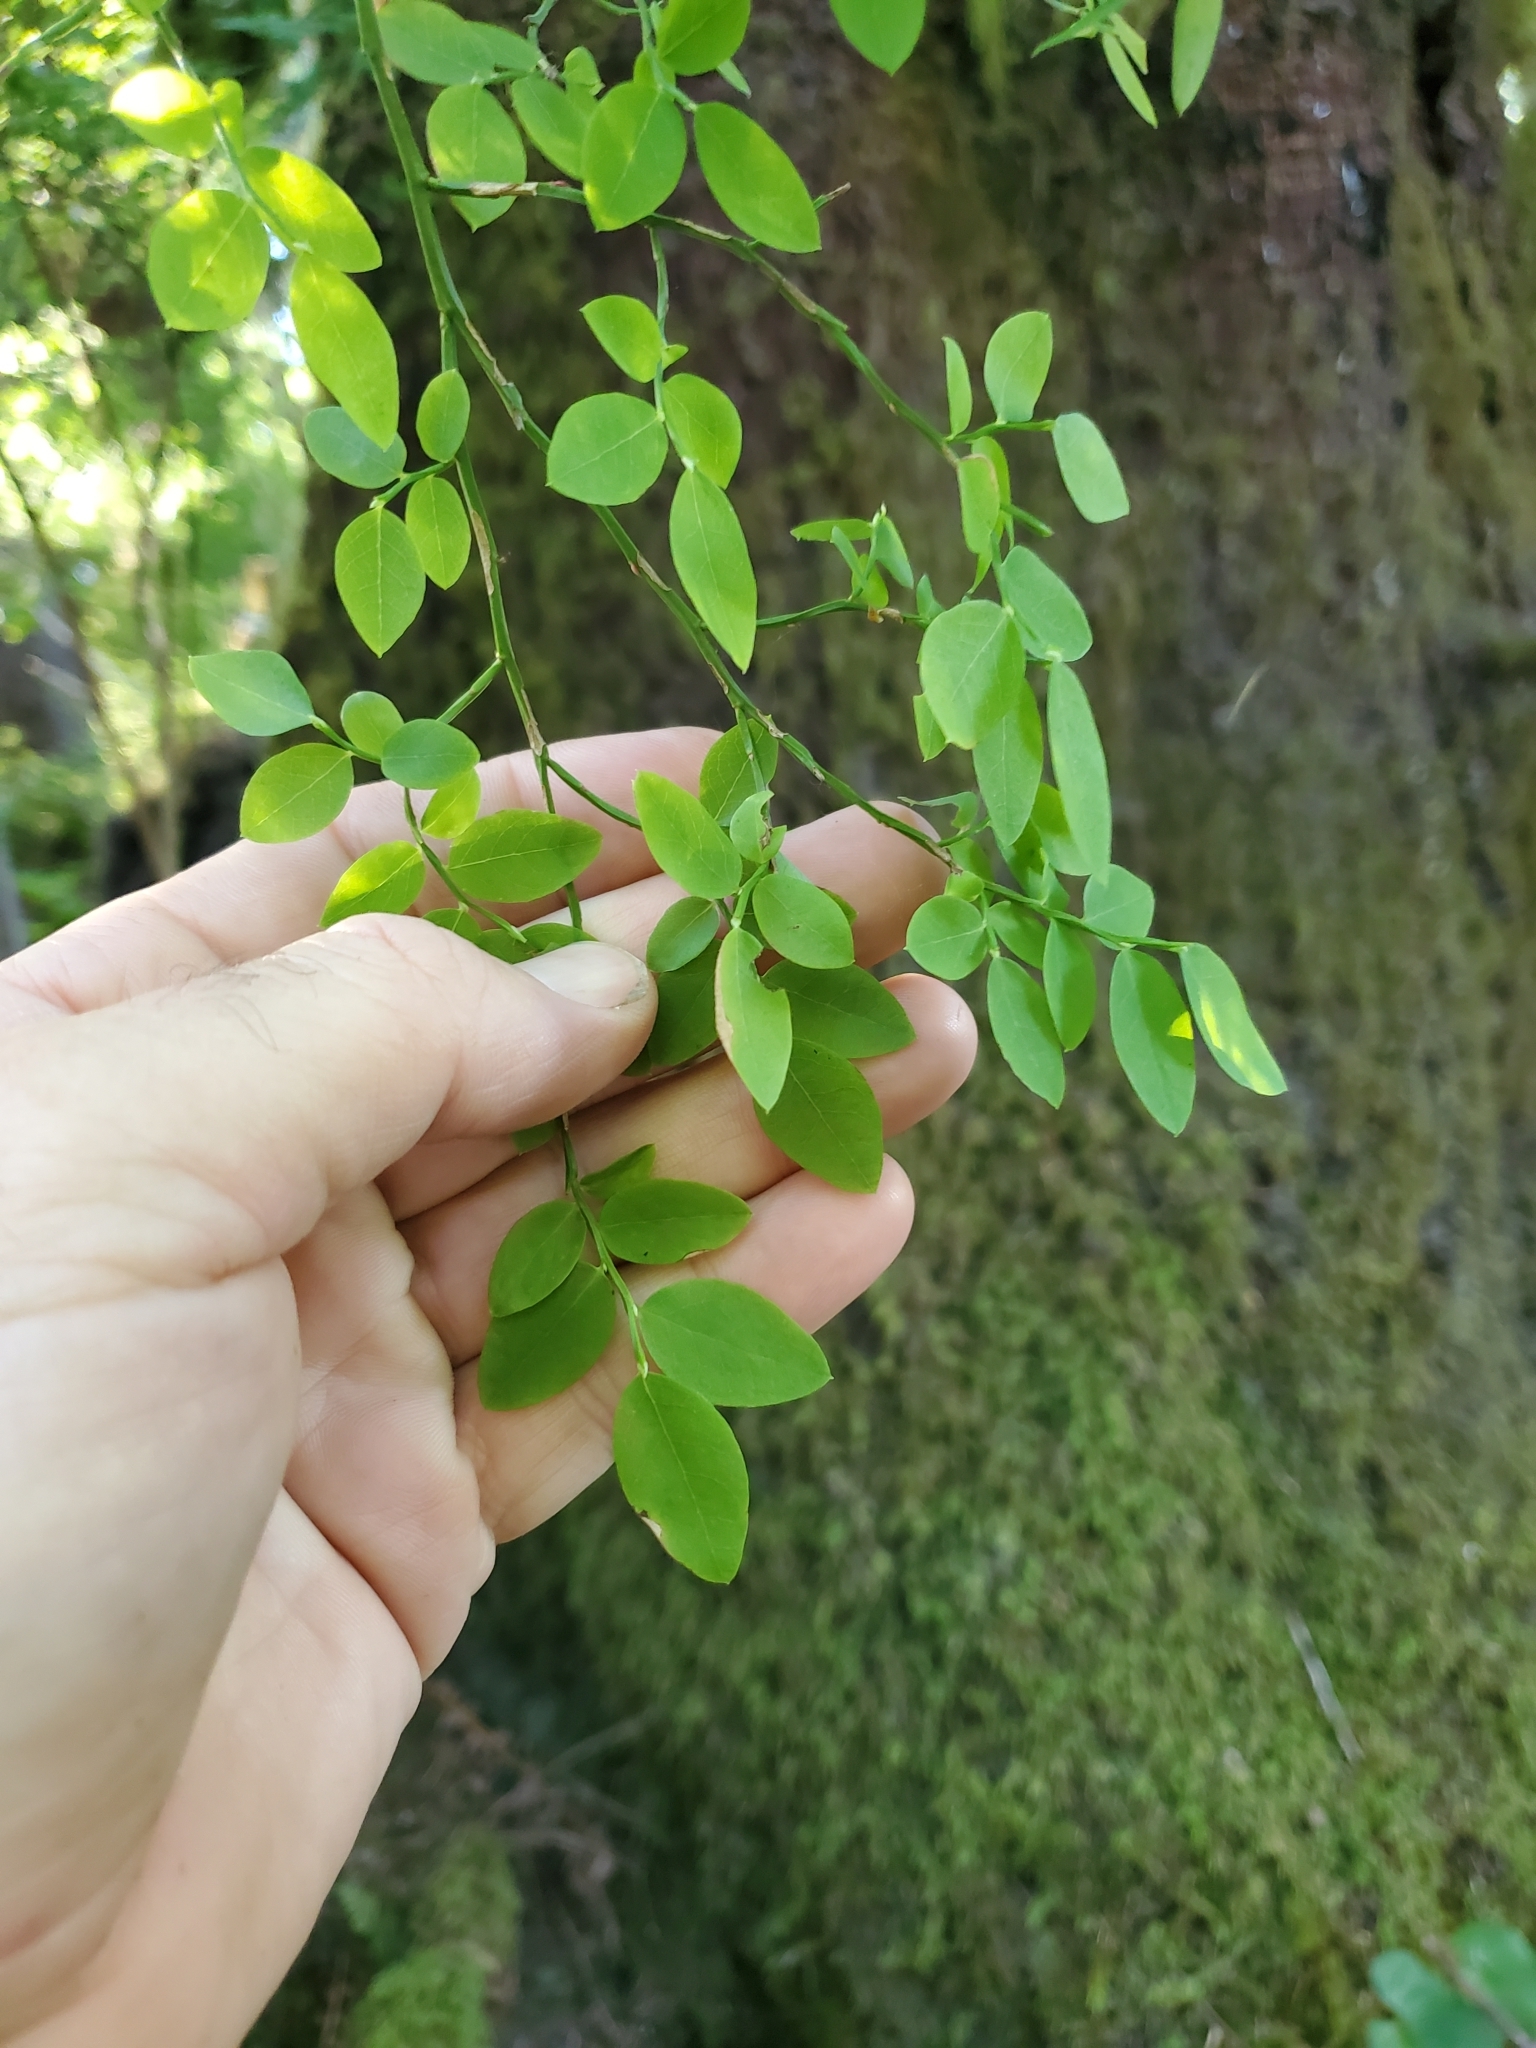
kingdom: Plantae
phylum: Tracheophyta
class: Magnoliopsida
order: Ericales
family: Ericaceae
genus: Vaccinium
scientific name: Vaccinium parvifolium
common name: Red-huckleberry
